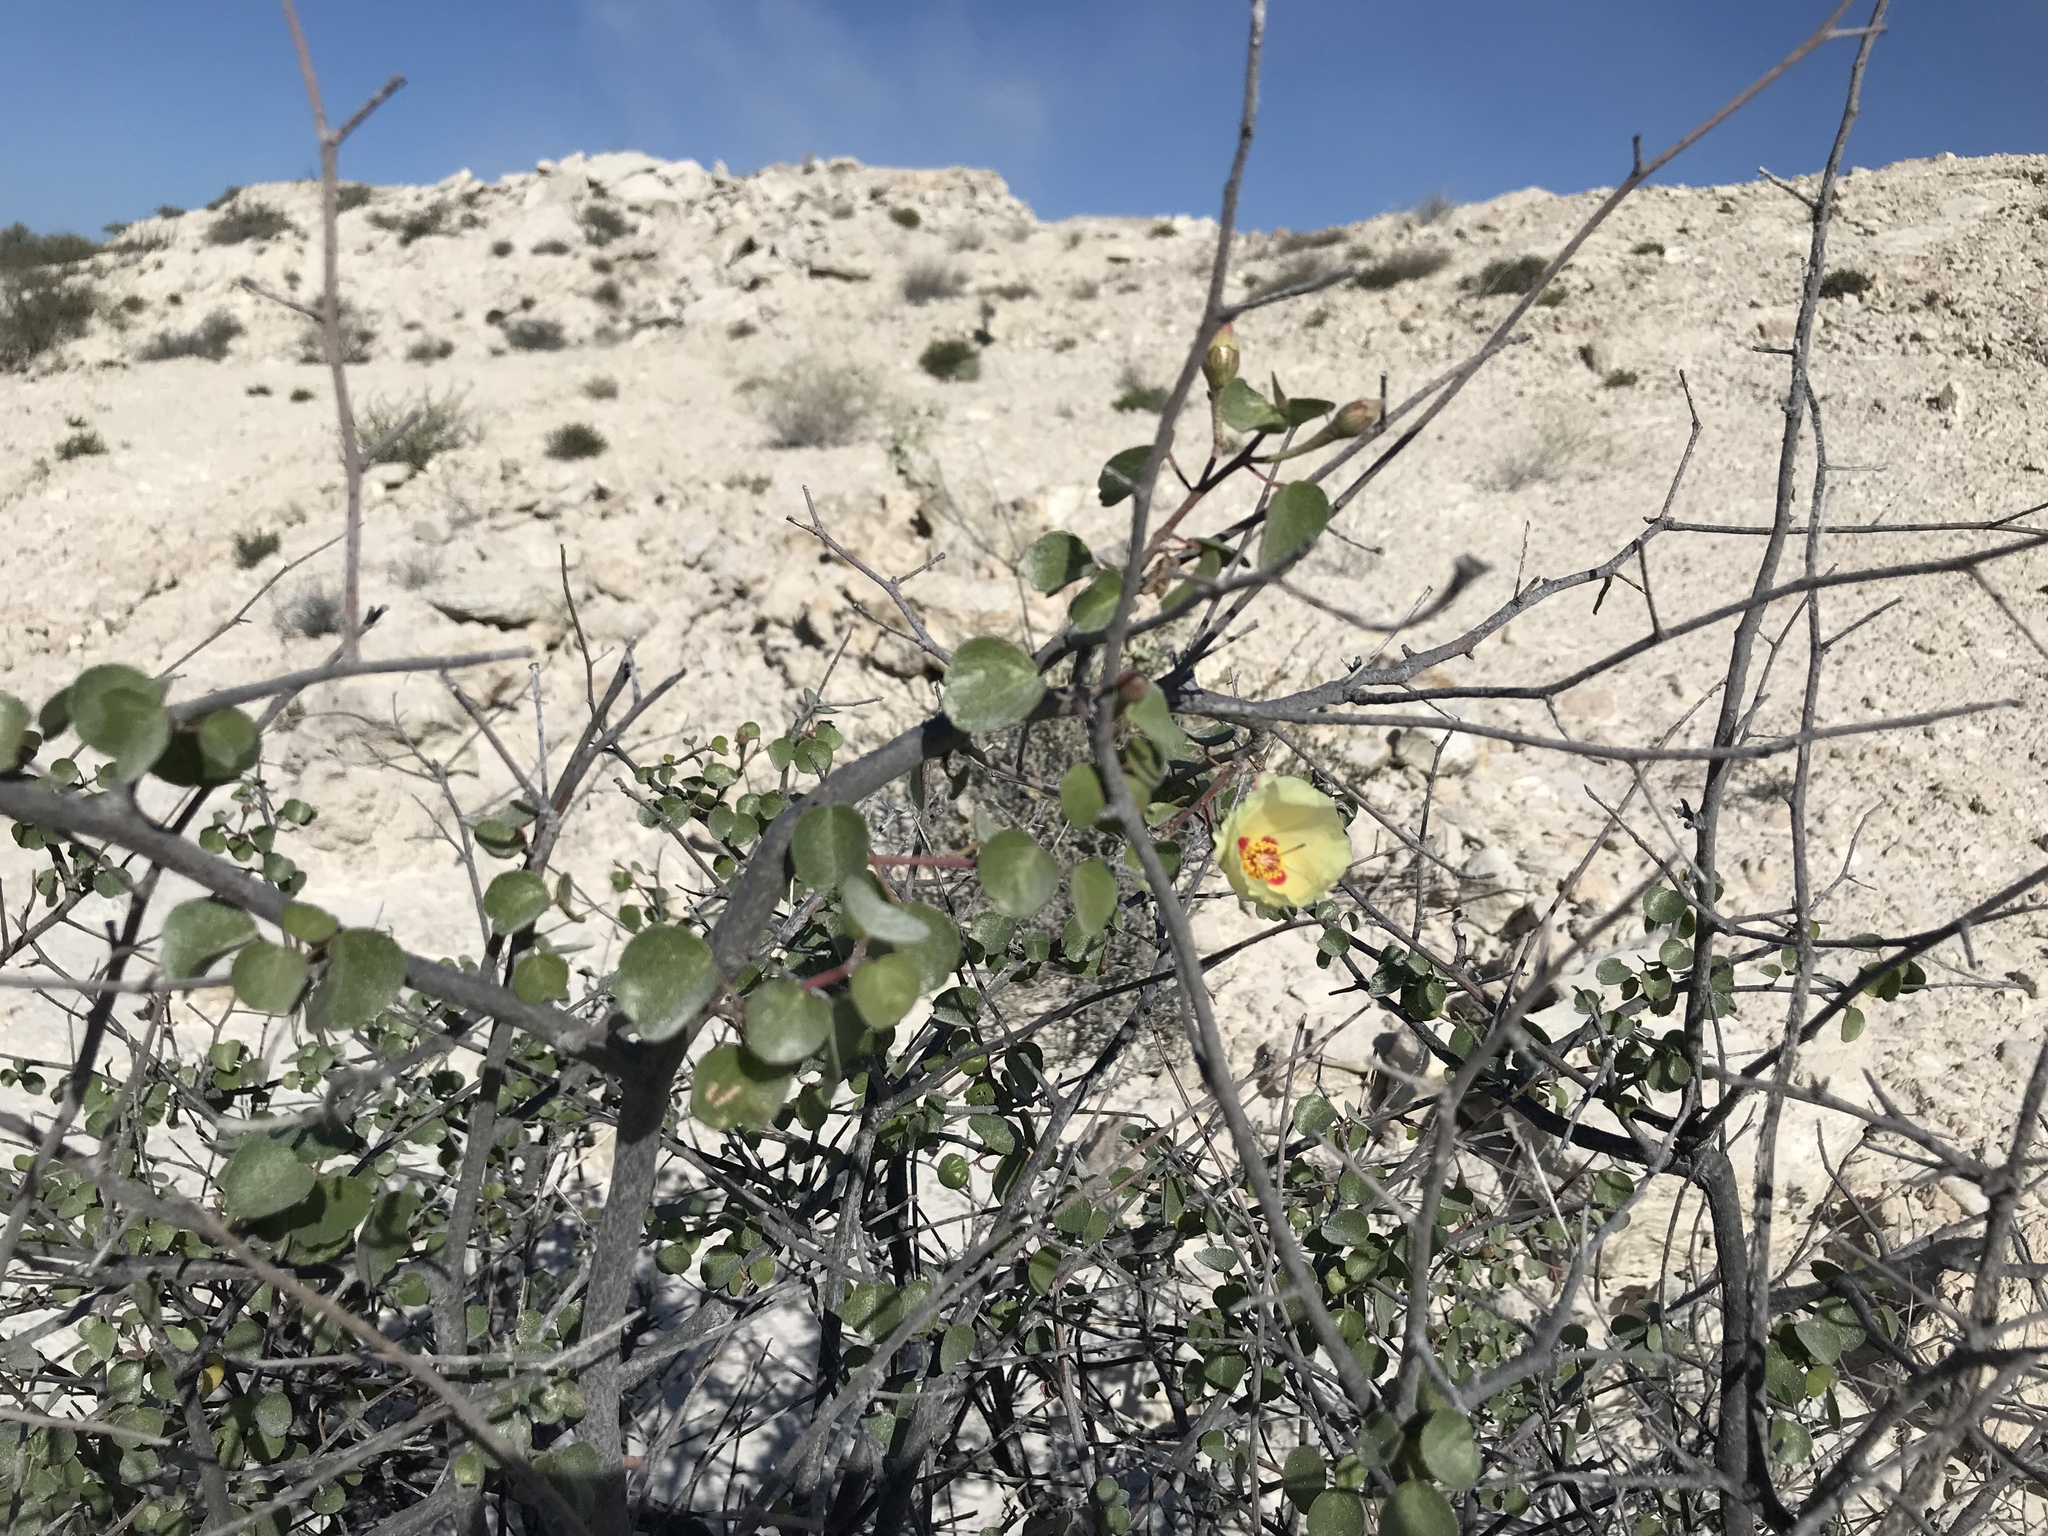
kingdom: Plantae
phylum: Tracheophyta
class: Magnoliopsida
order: Malvales
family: Malvaceae
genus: Gossypium
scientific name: Gossypium armourianum
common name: Wild cotton
